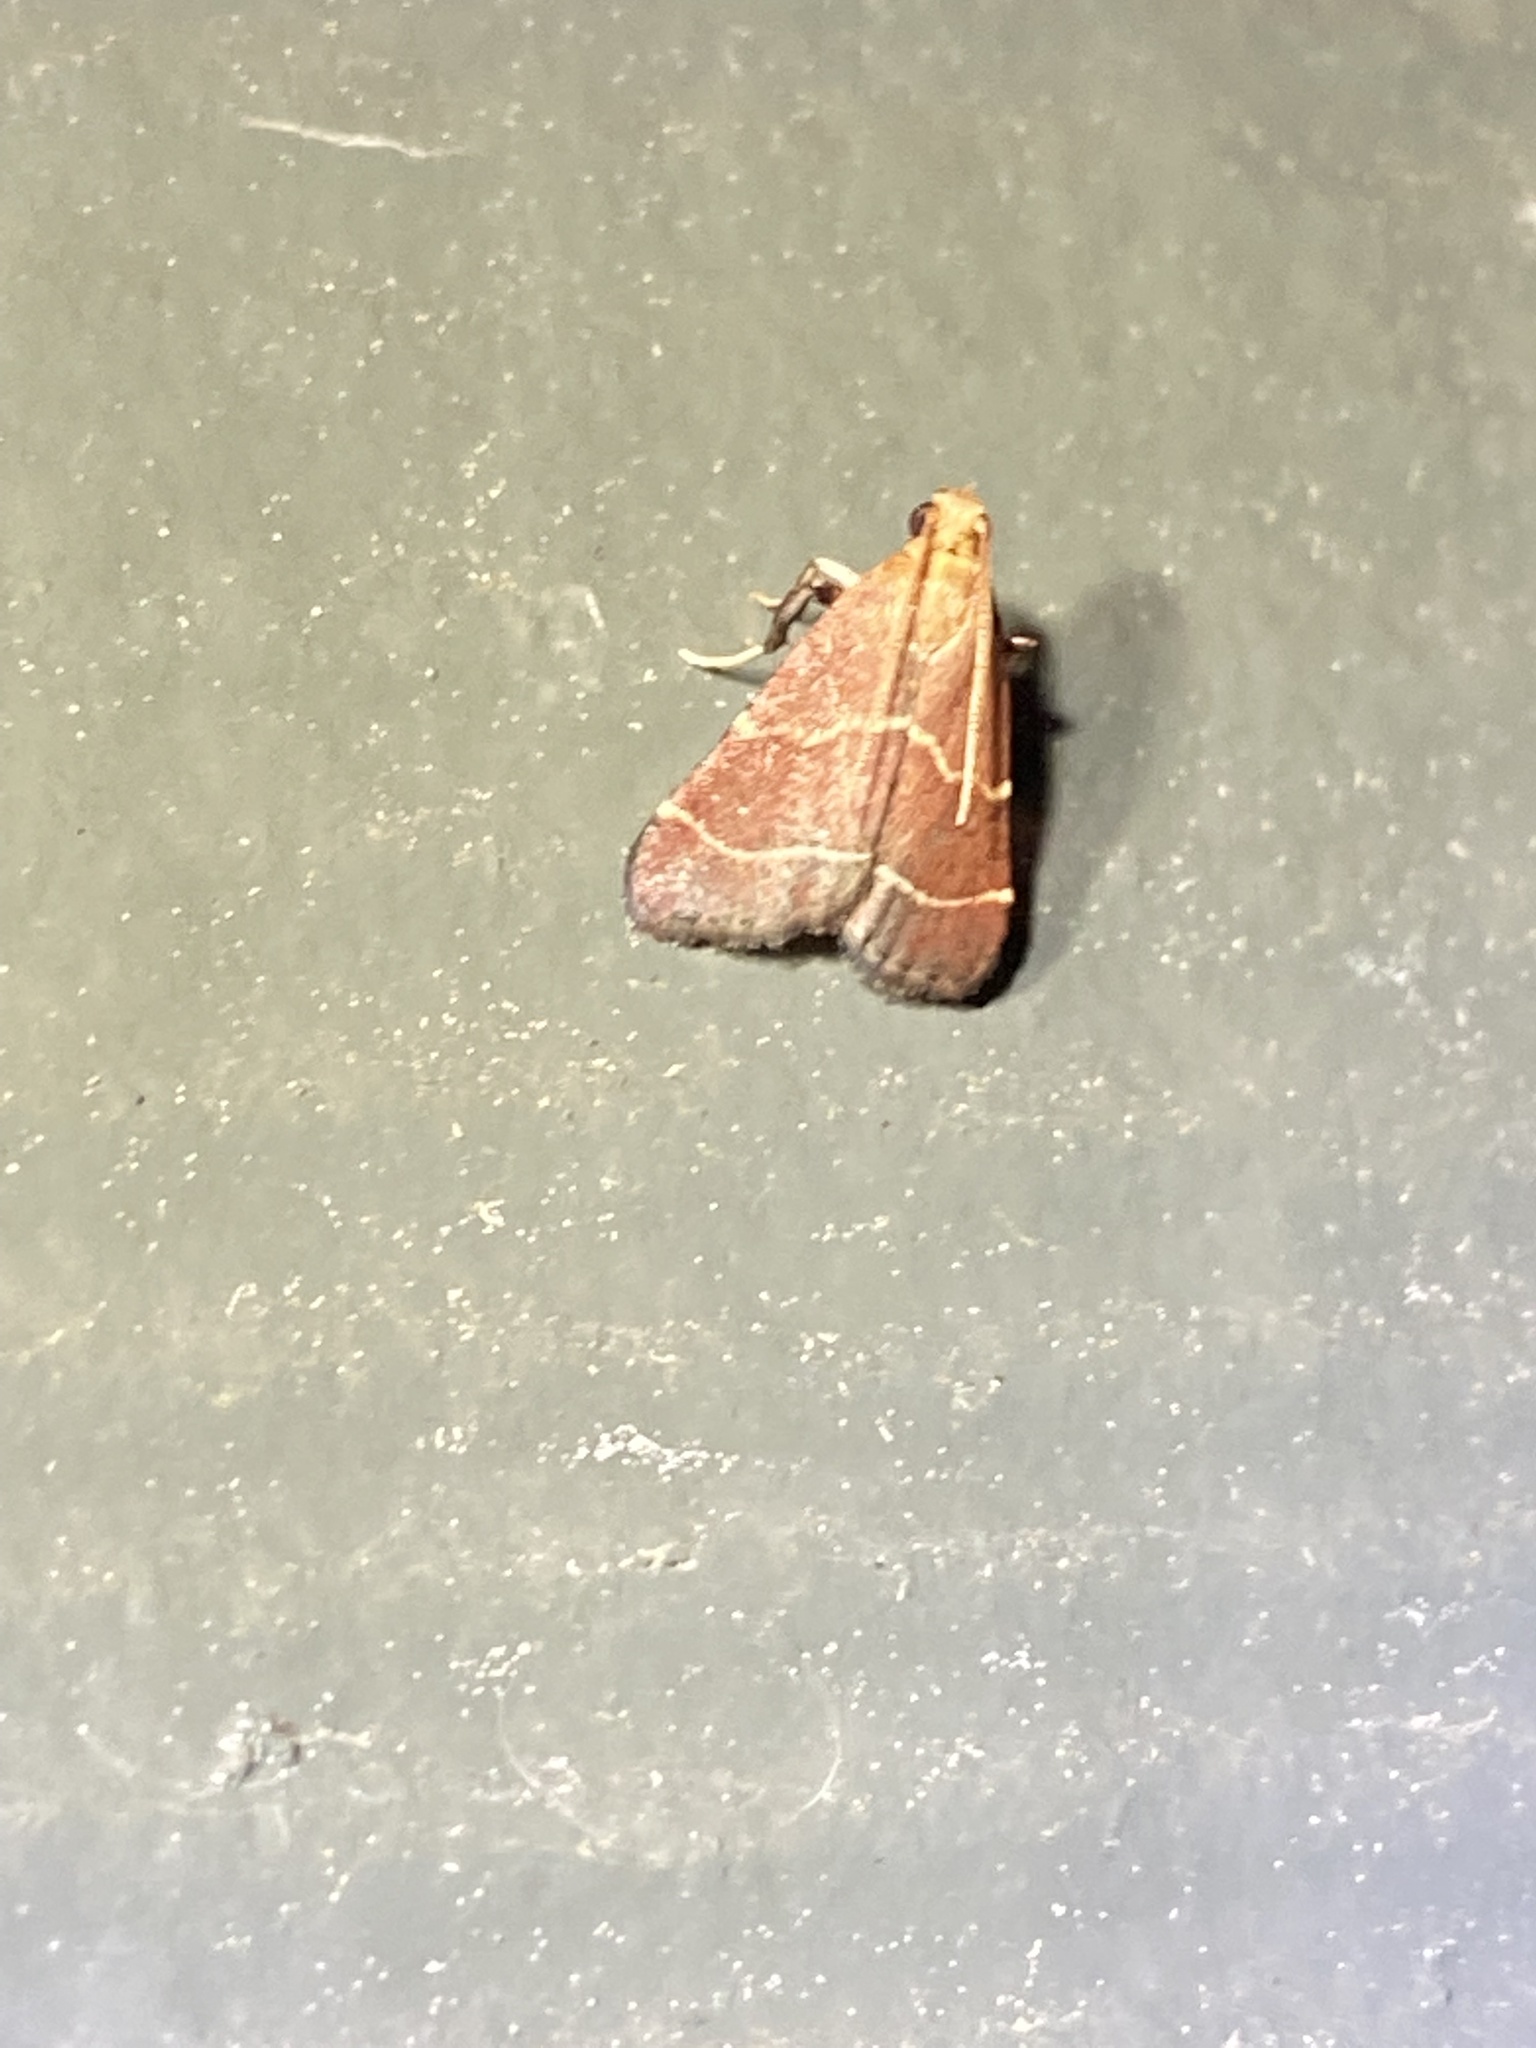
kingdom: Animalia
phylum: Arthropoda
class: Insecta
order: Lepidoptera
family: Pyralidae
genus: Arta
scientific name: Arta statalis
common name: Posturing arta moth
